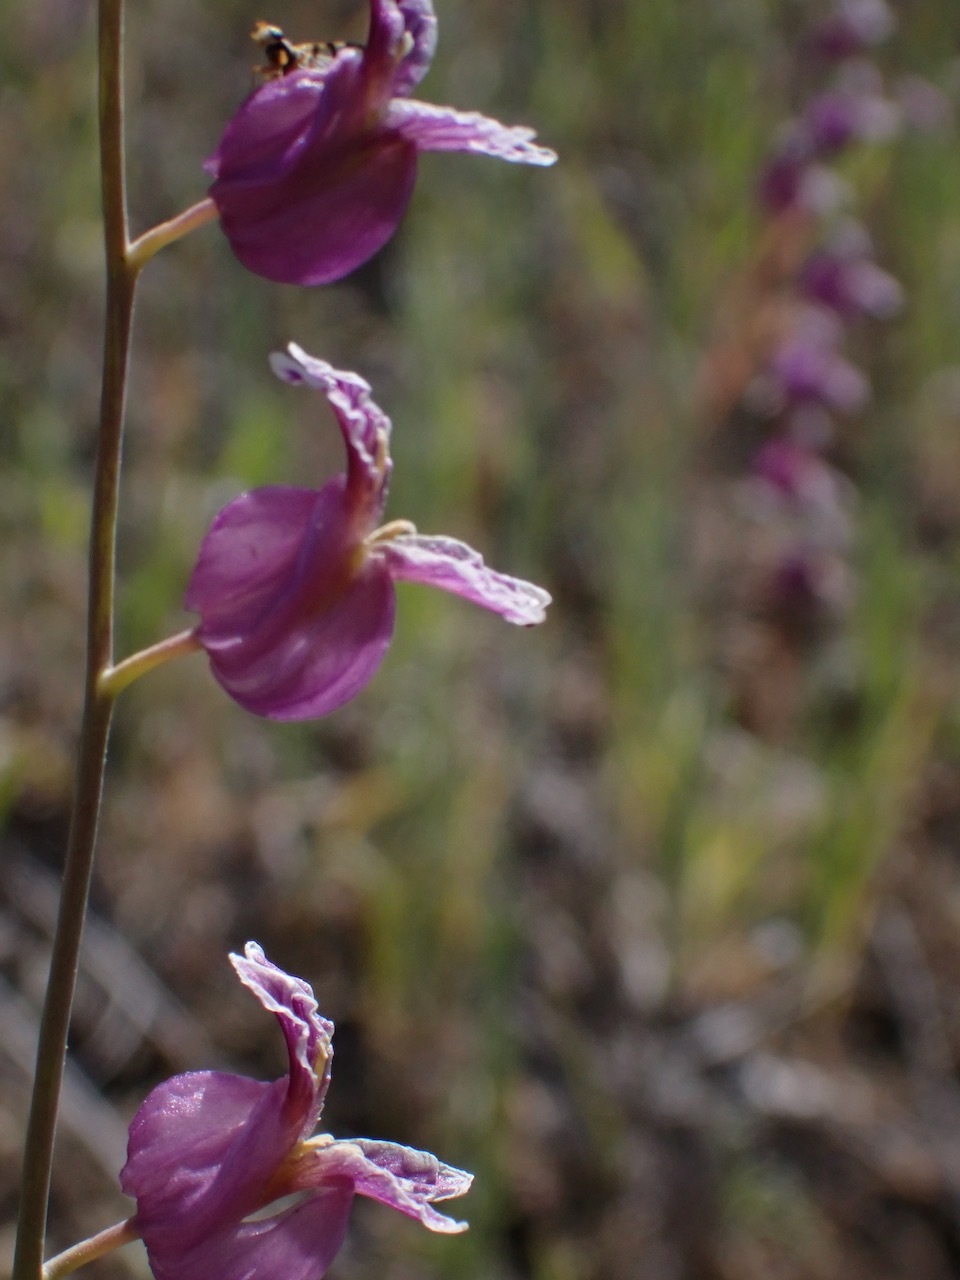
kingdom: Plantae
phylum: Tracheophyta
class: Magnoliopsida
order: Brassicales
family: Brassicaceae
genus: Streptanthus
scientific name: Streptanthus glandulosus
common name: Jewel-flower
